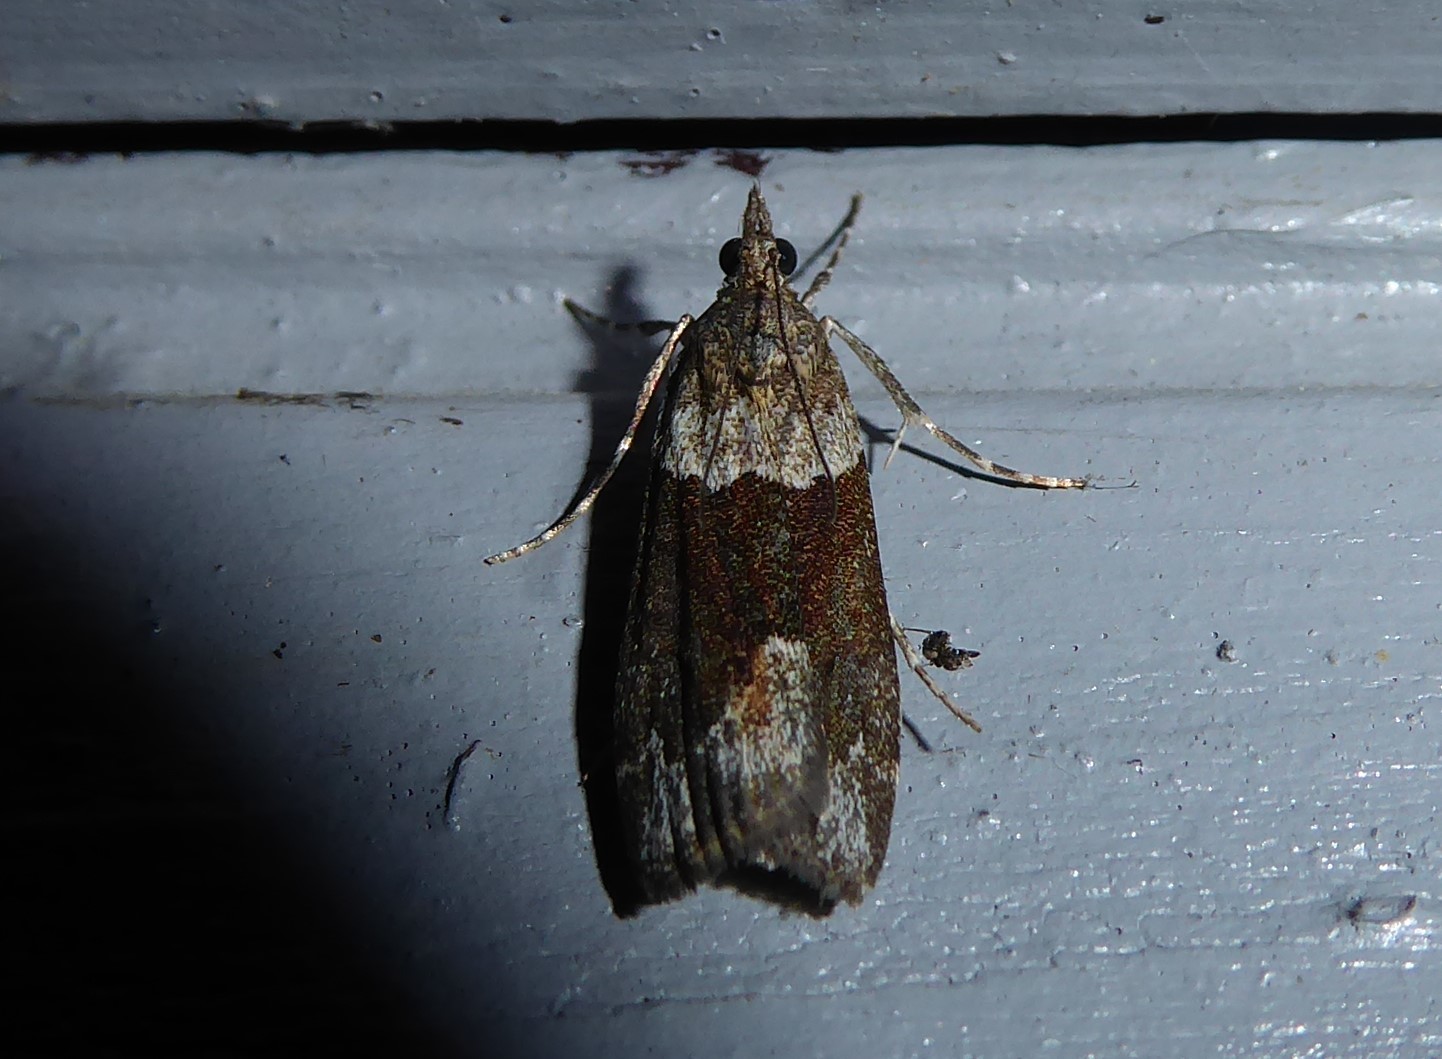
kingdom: Animalia
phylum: Arthropoda
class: Insecta
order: Lepidoptera
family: Crambidae
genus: Eudonia
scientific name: Eudonia submarginalis
